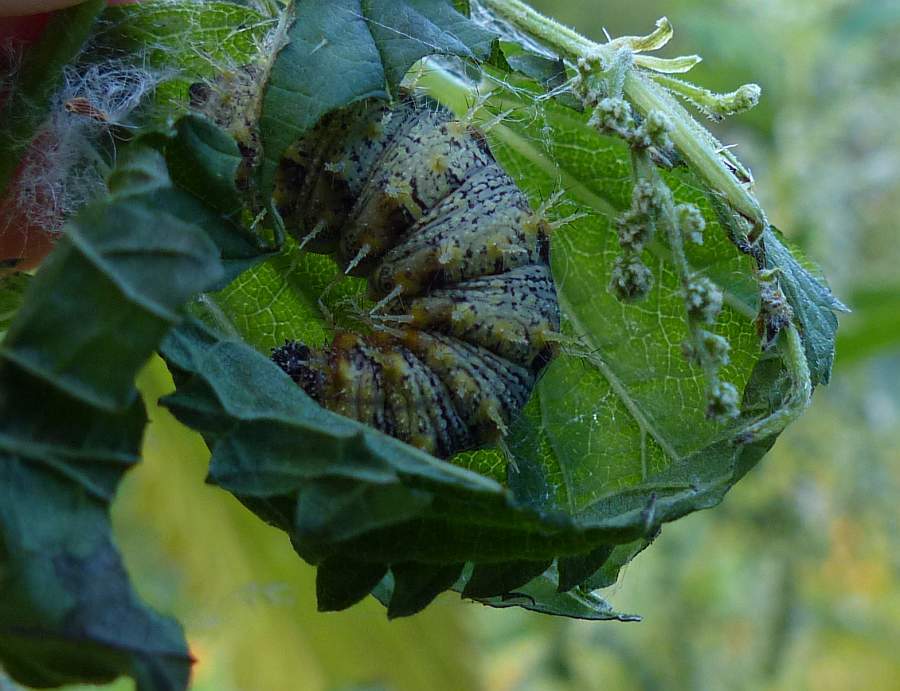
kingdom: Animalia
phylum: Arthropoda
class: Insecta
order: Lepidoptera
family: Nymphalidae
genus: Vanessa
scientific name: Vanessa atalanta
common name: Red admiral
